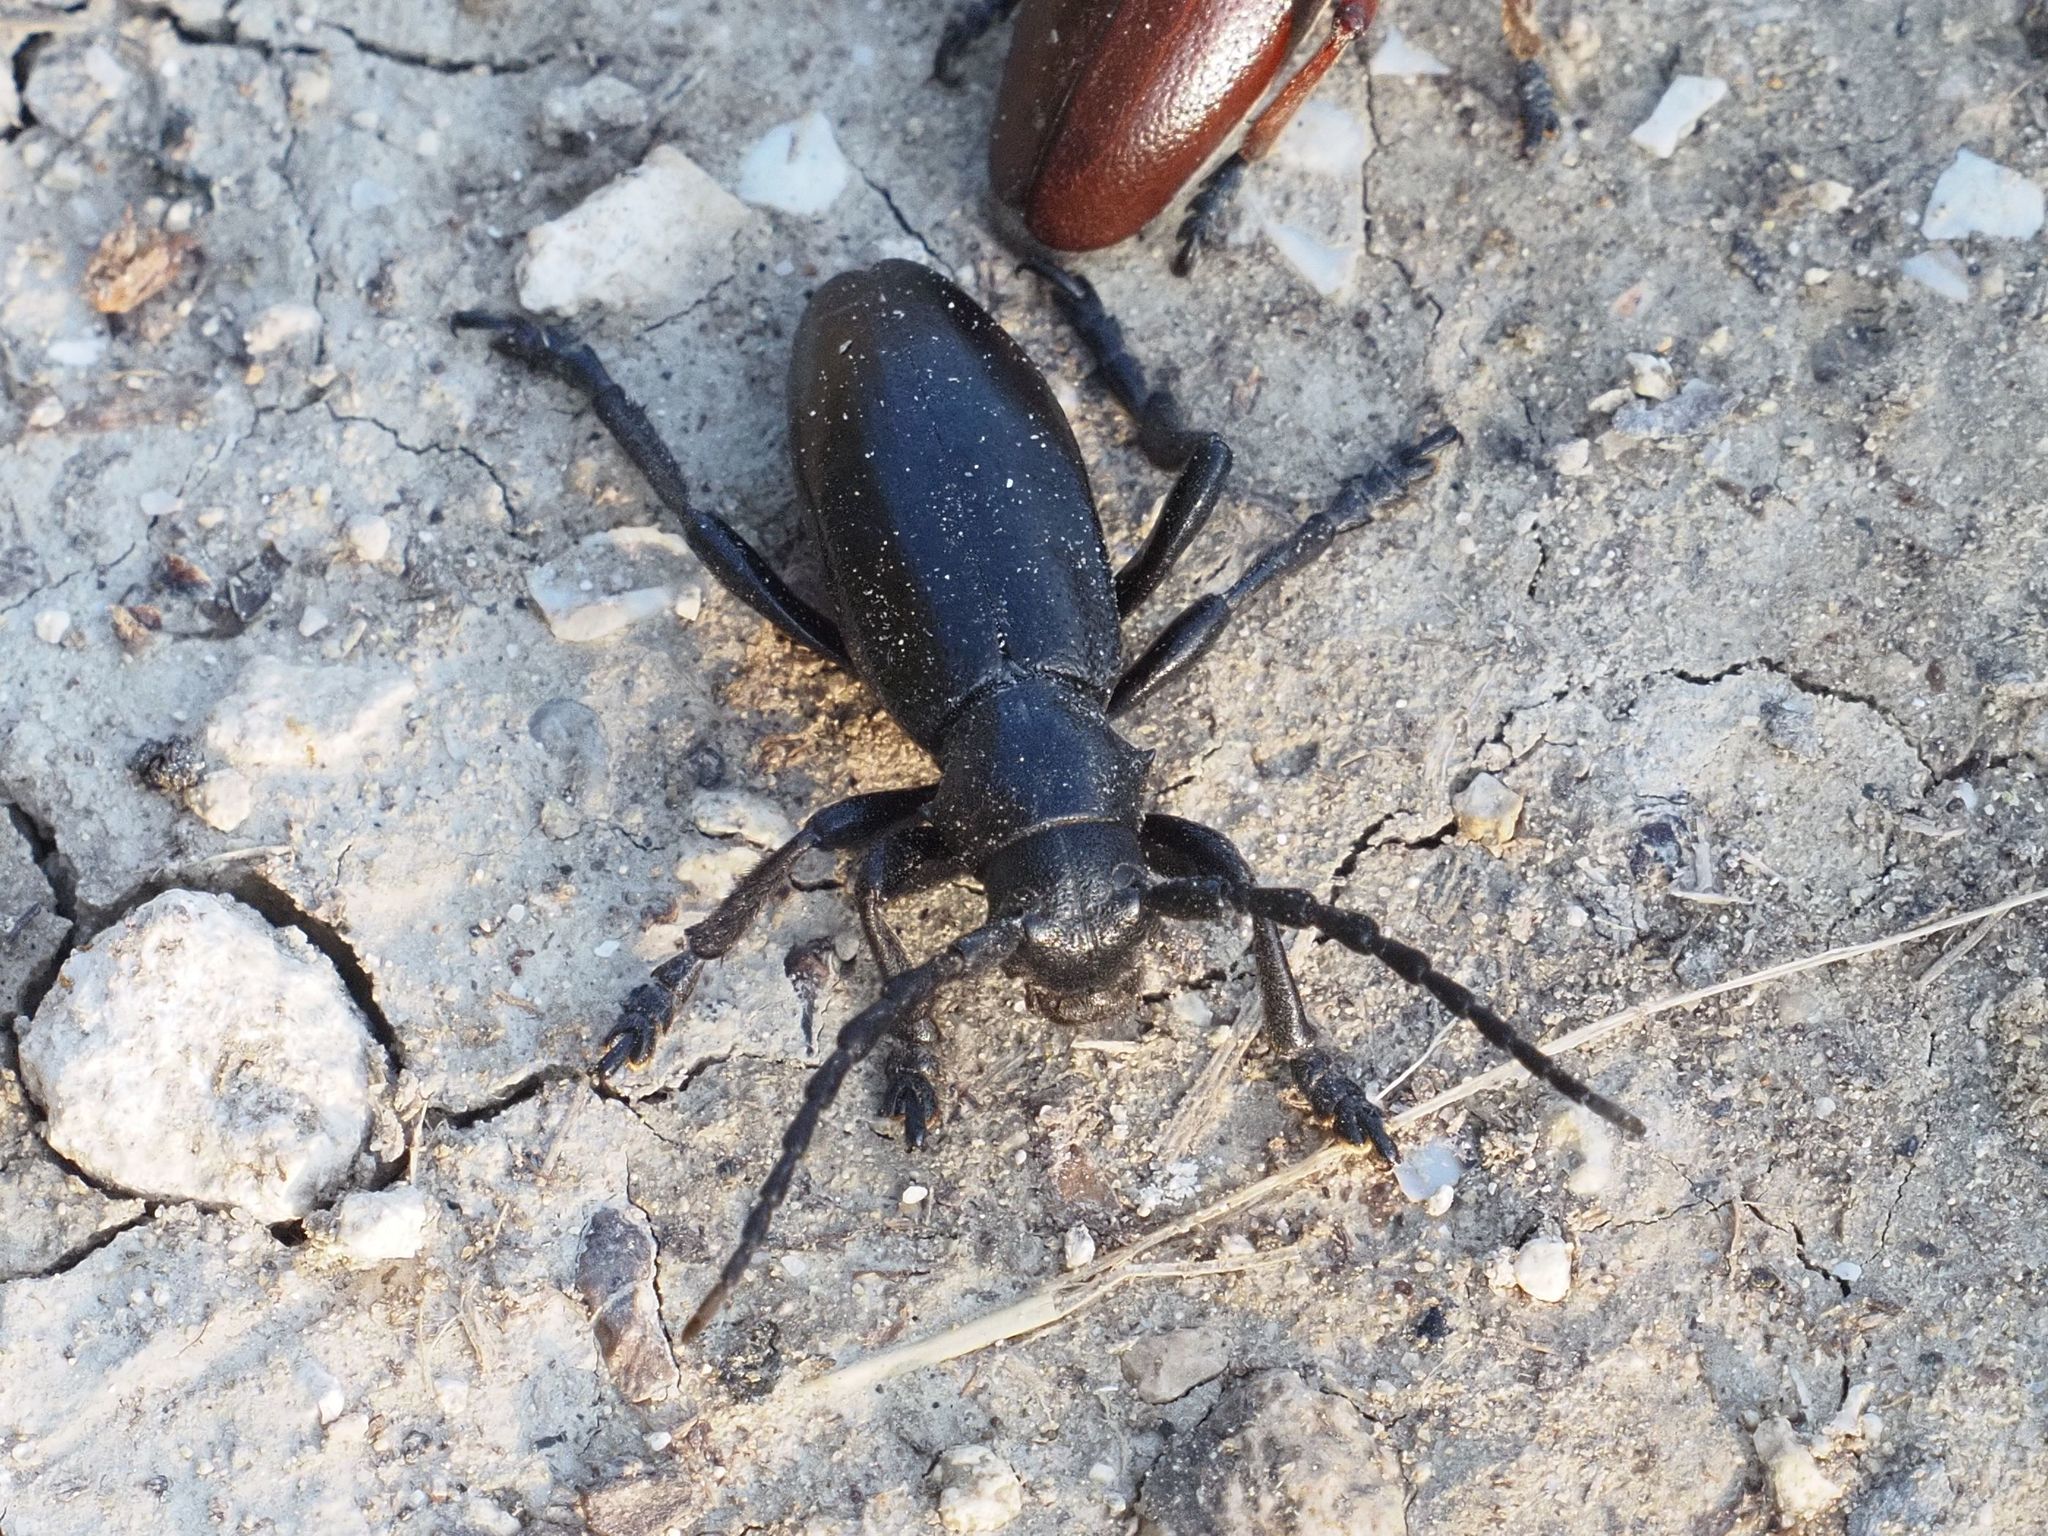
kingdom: Animalia
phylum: Arthropoda
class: Insecta
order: Coleoptera
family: Cerambycidae
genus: Dorcadion
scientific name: Dorcadion aethiops
